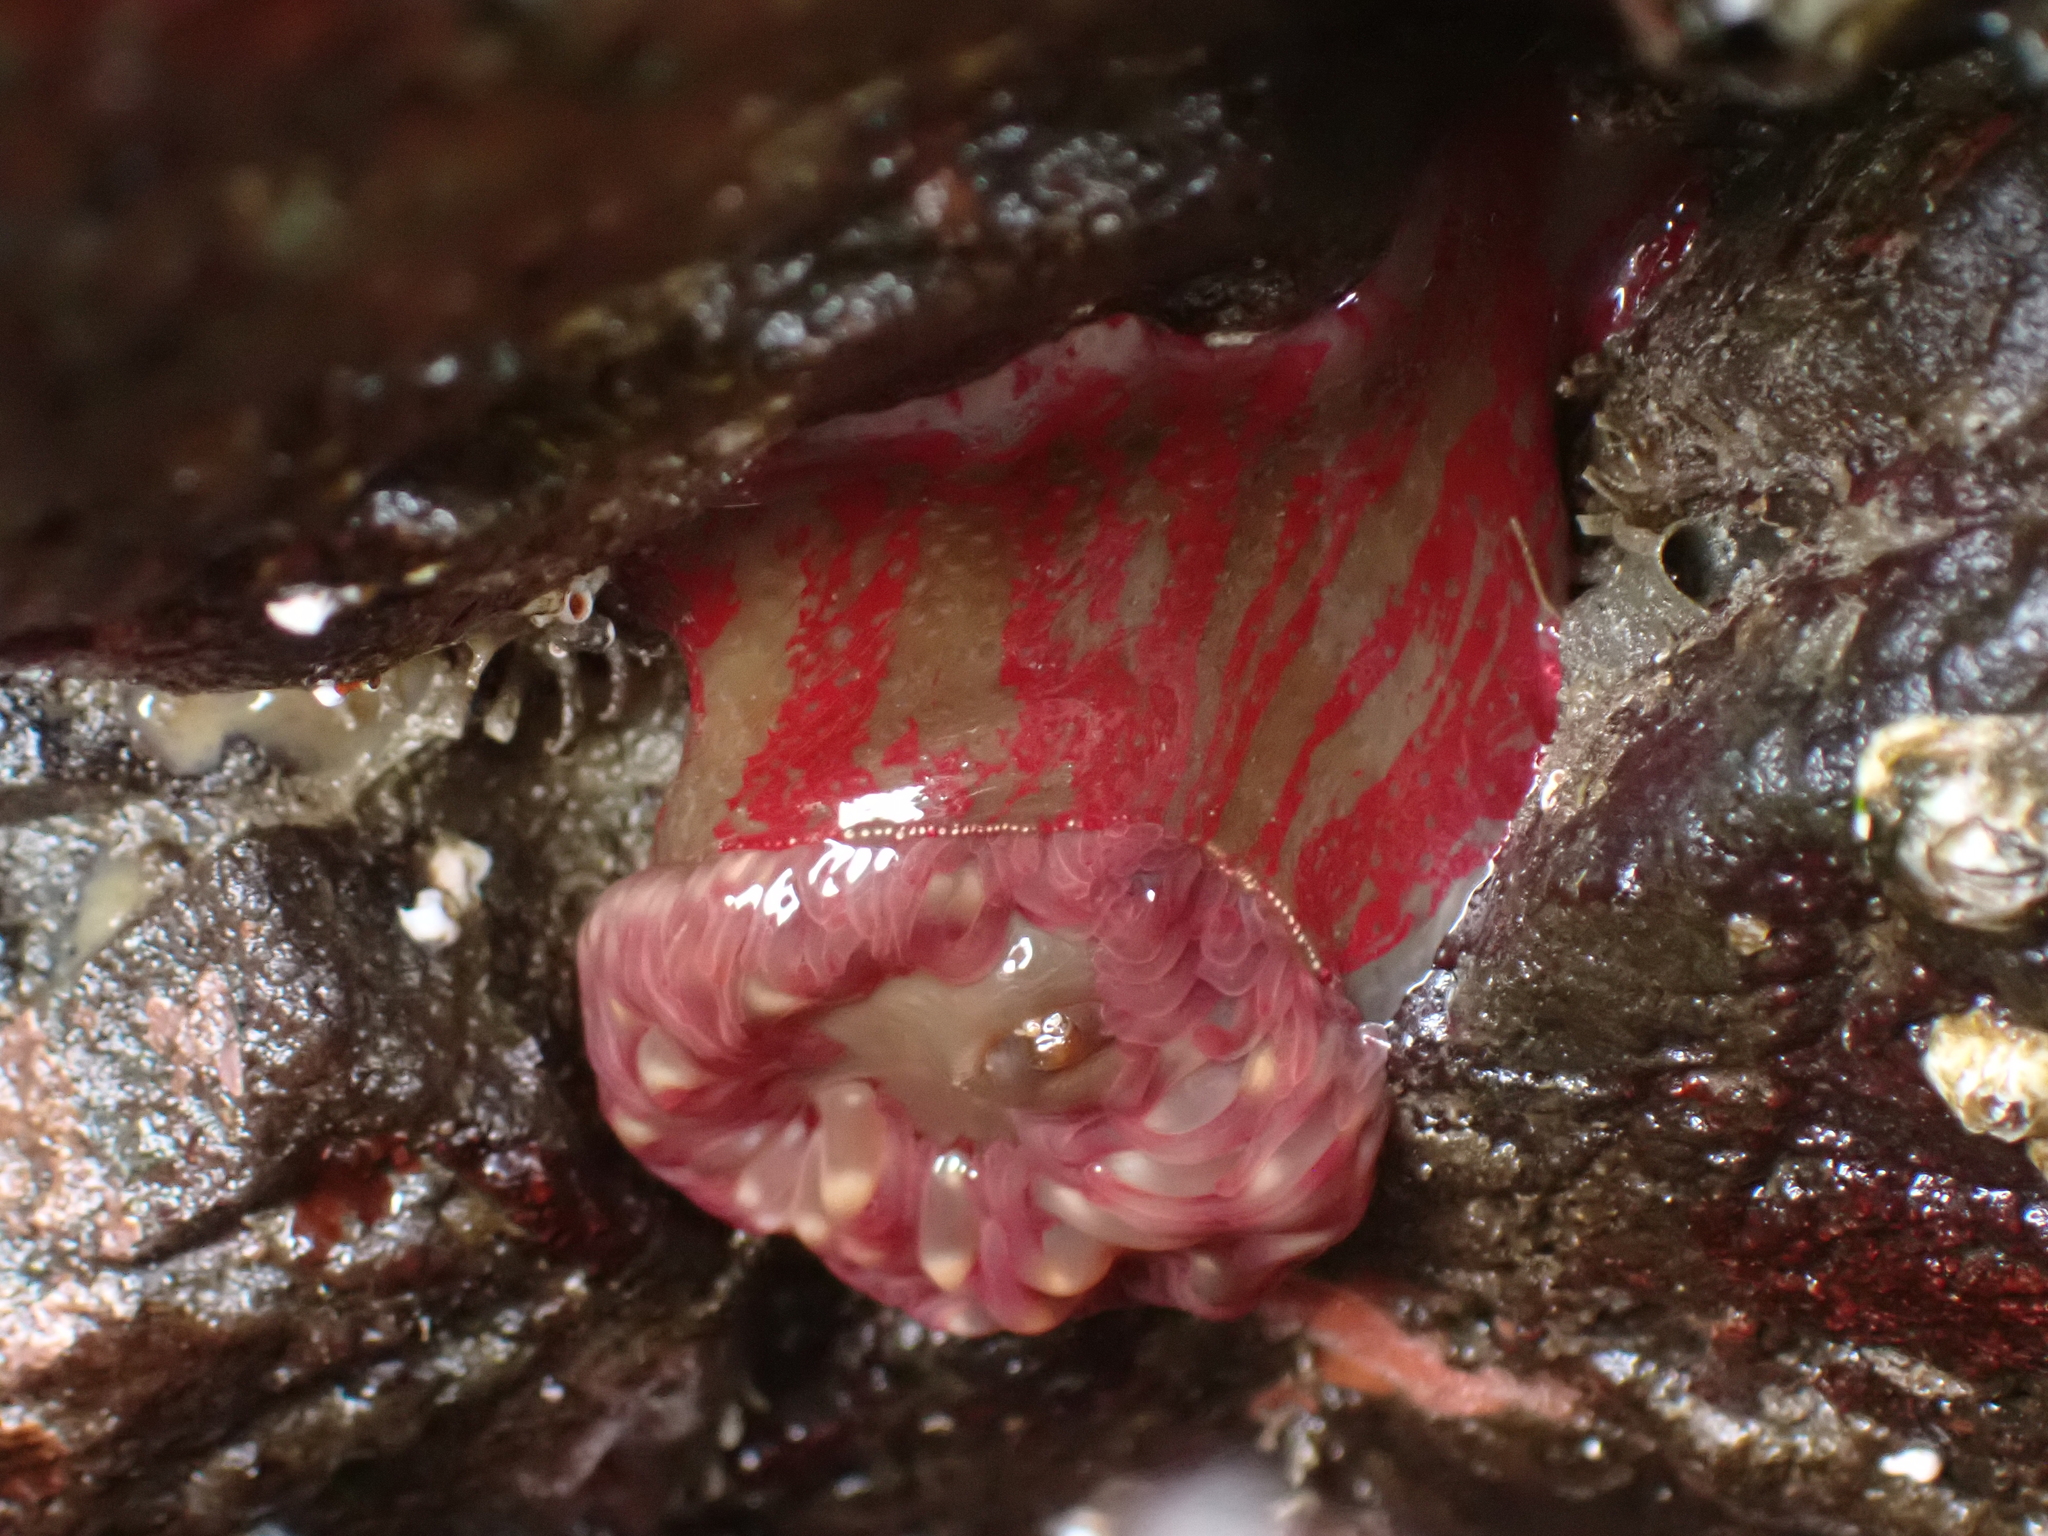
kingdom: Animalia
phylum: Cnidaria
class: Anthozoa
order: Actiniaria
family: Actiniidae
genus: Urticina
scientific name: Urticina grebelnyi
